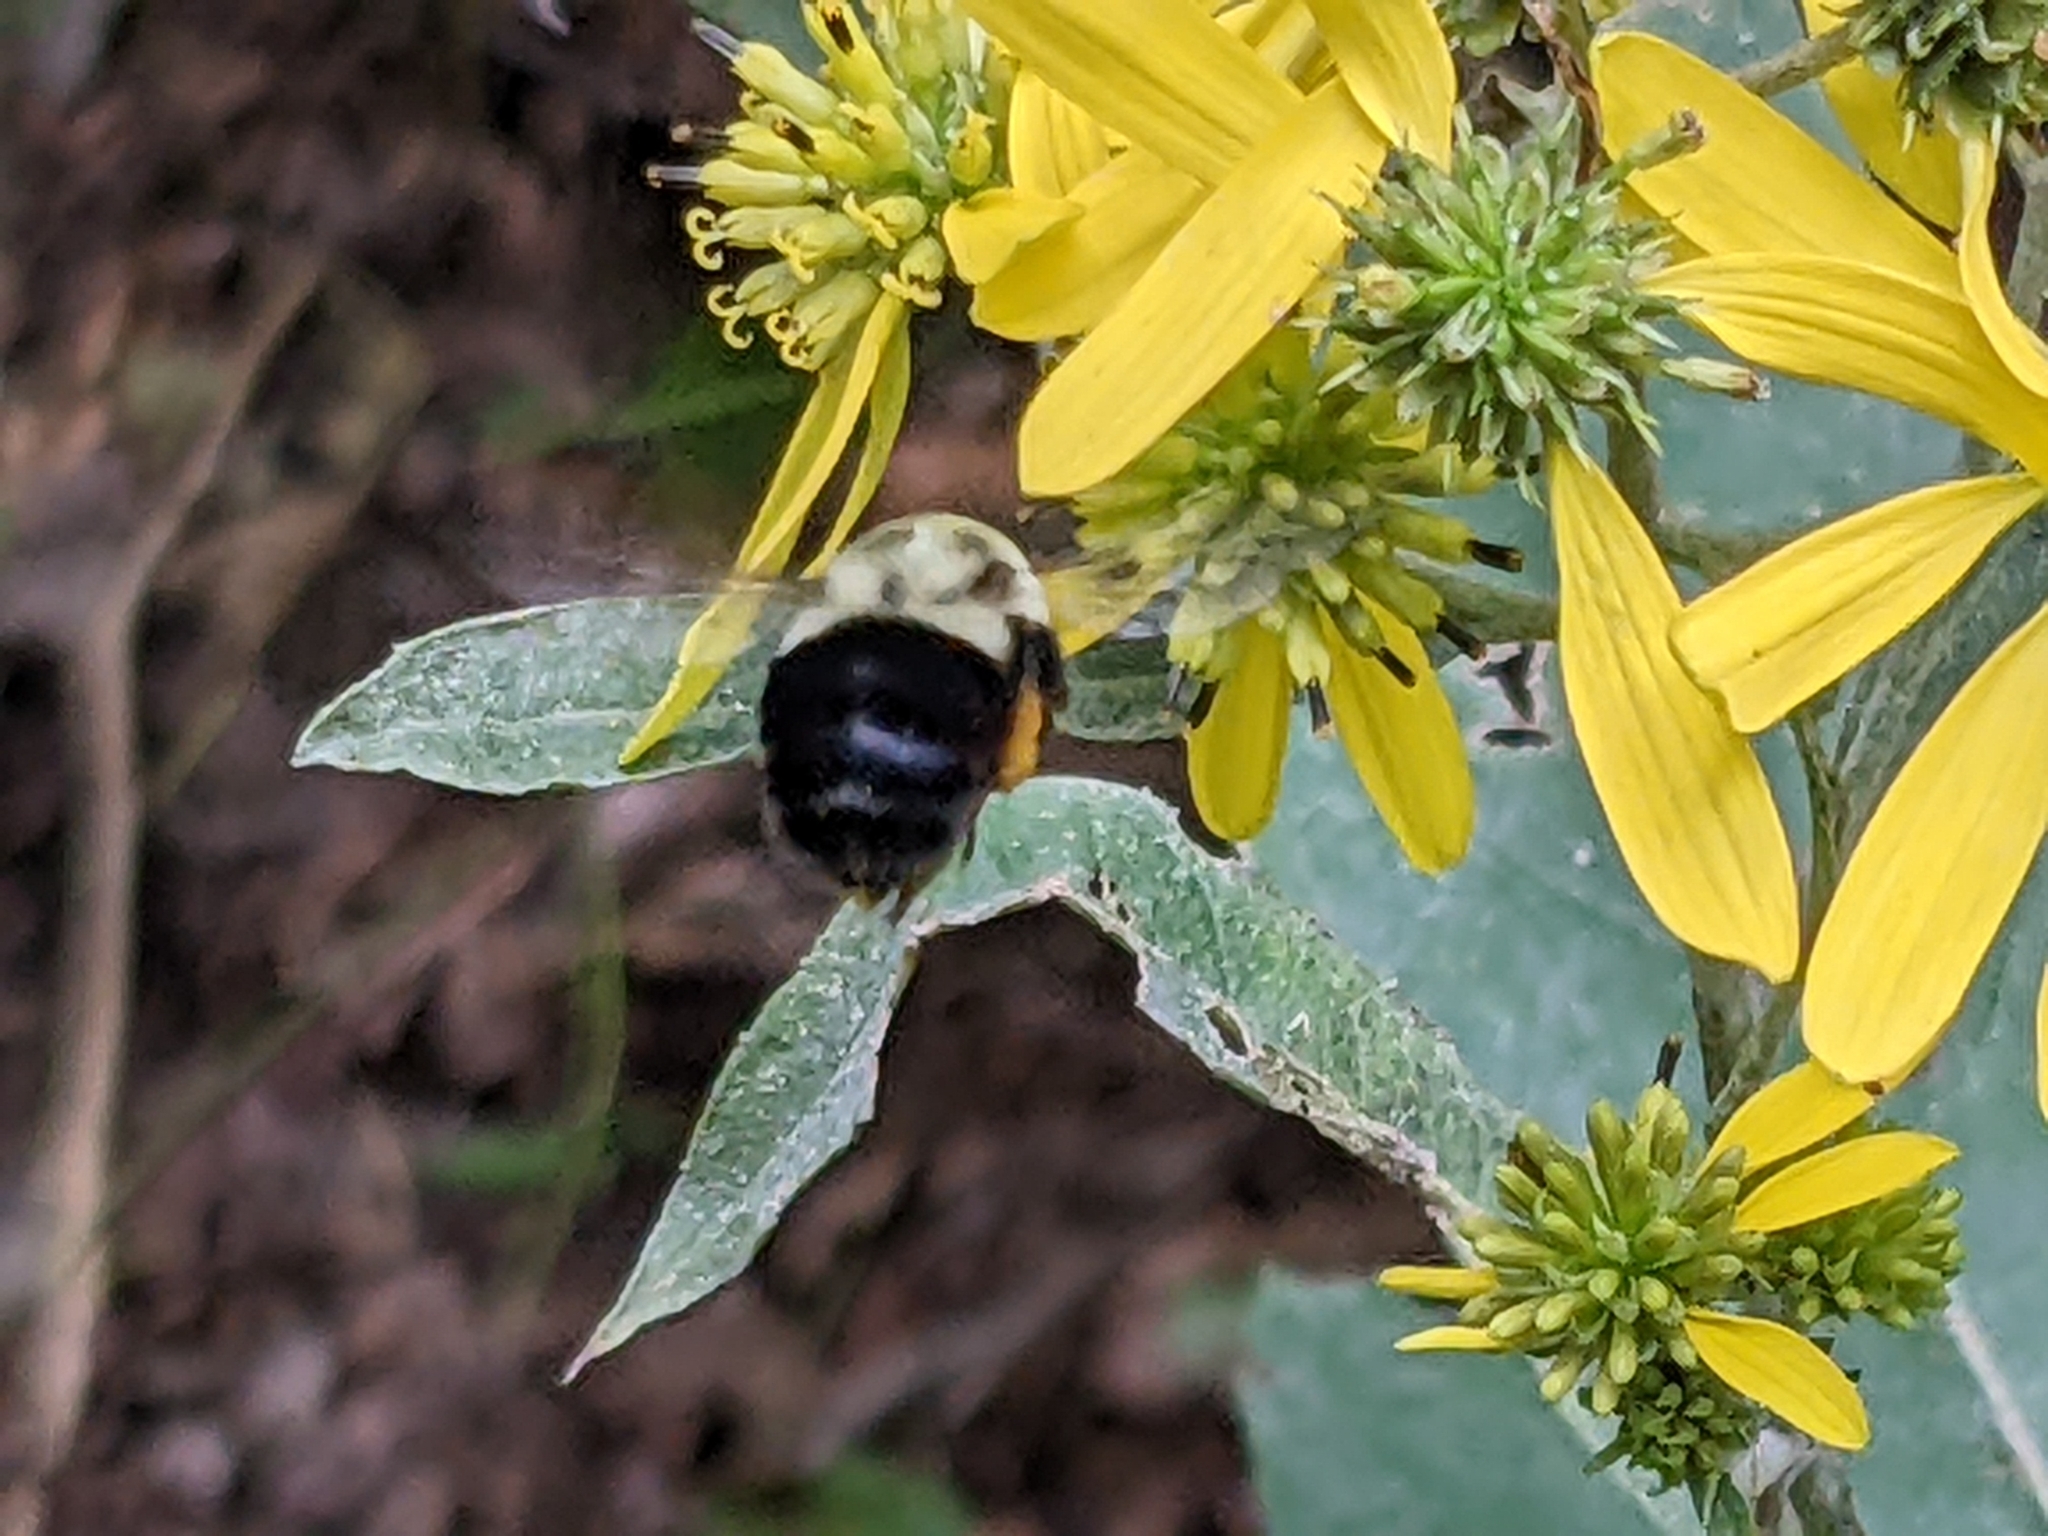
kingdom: Animalia
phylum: Arthropoda
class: Insecta
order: Hymenoptera
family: Apidae
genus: Bombus
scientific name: Bombus impatiens
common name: Common eastern bumble bee
